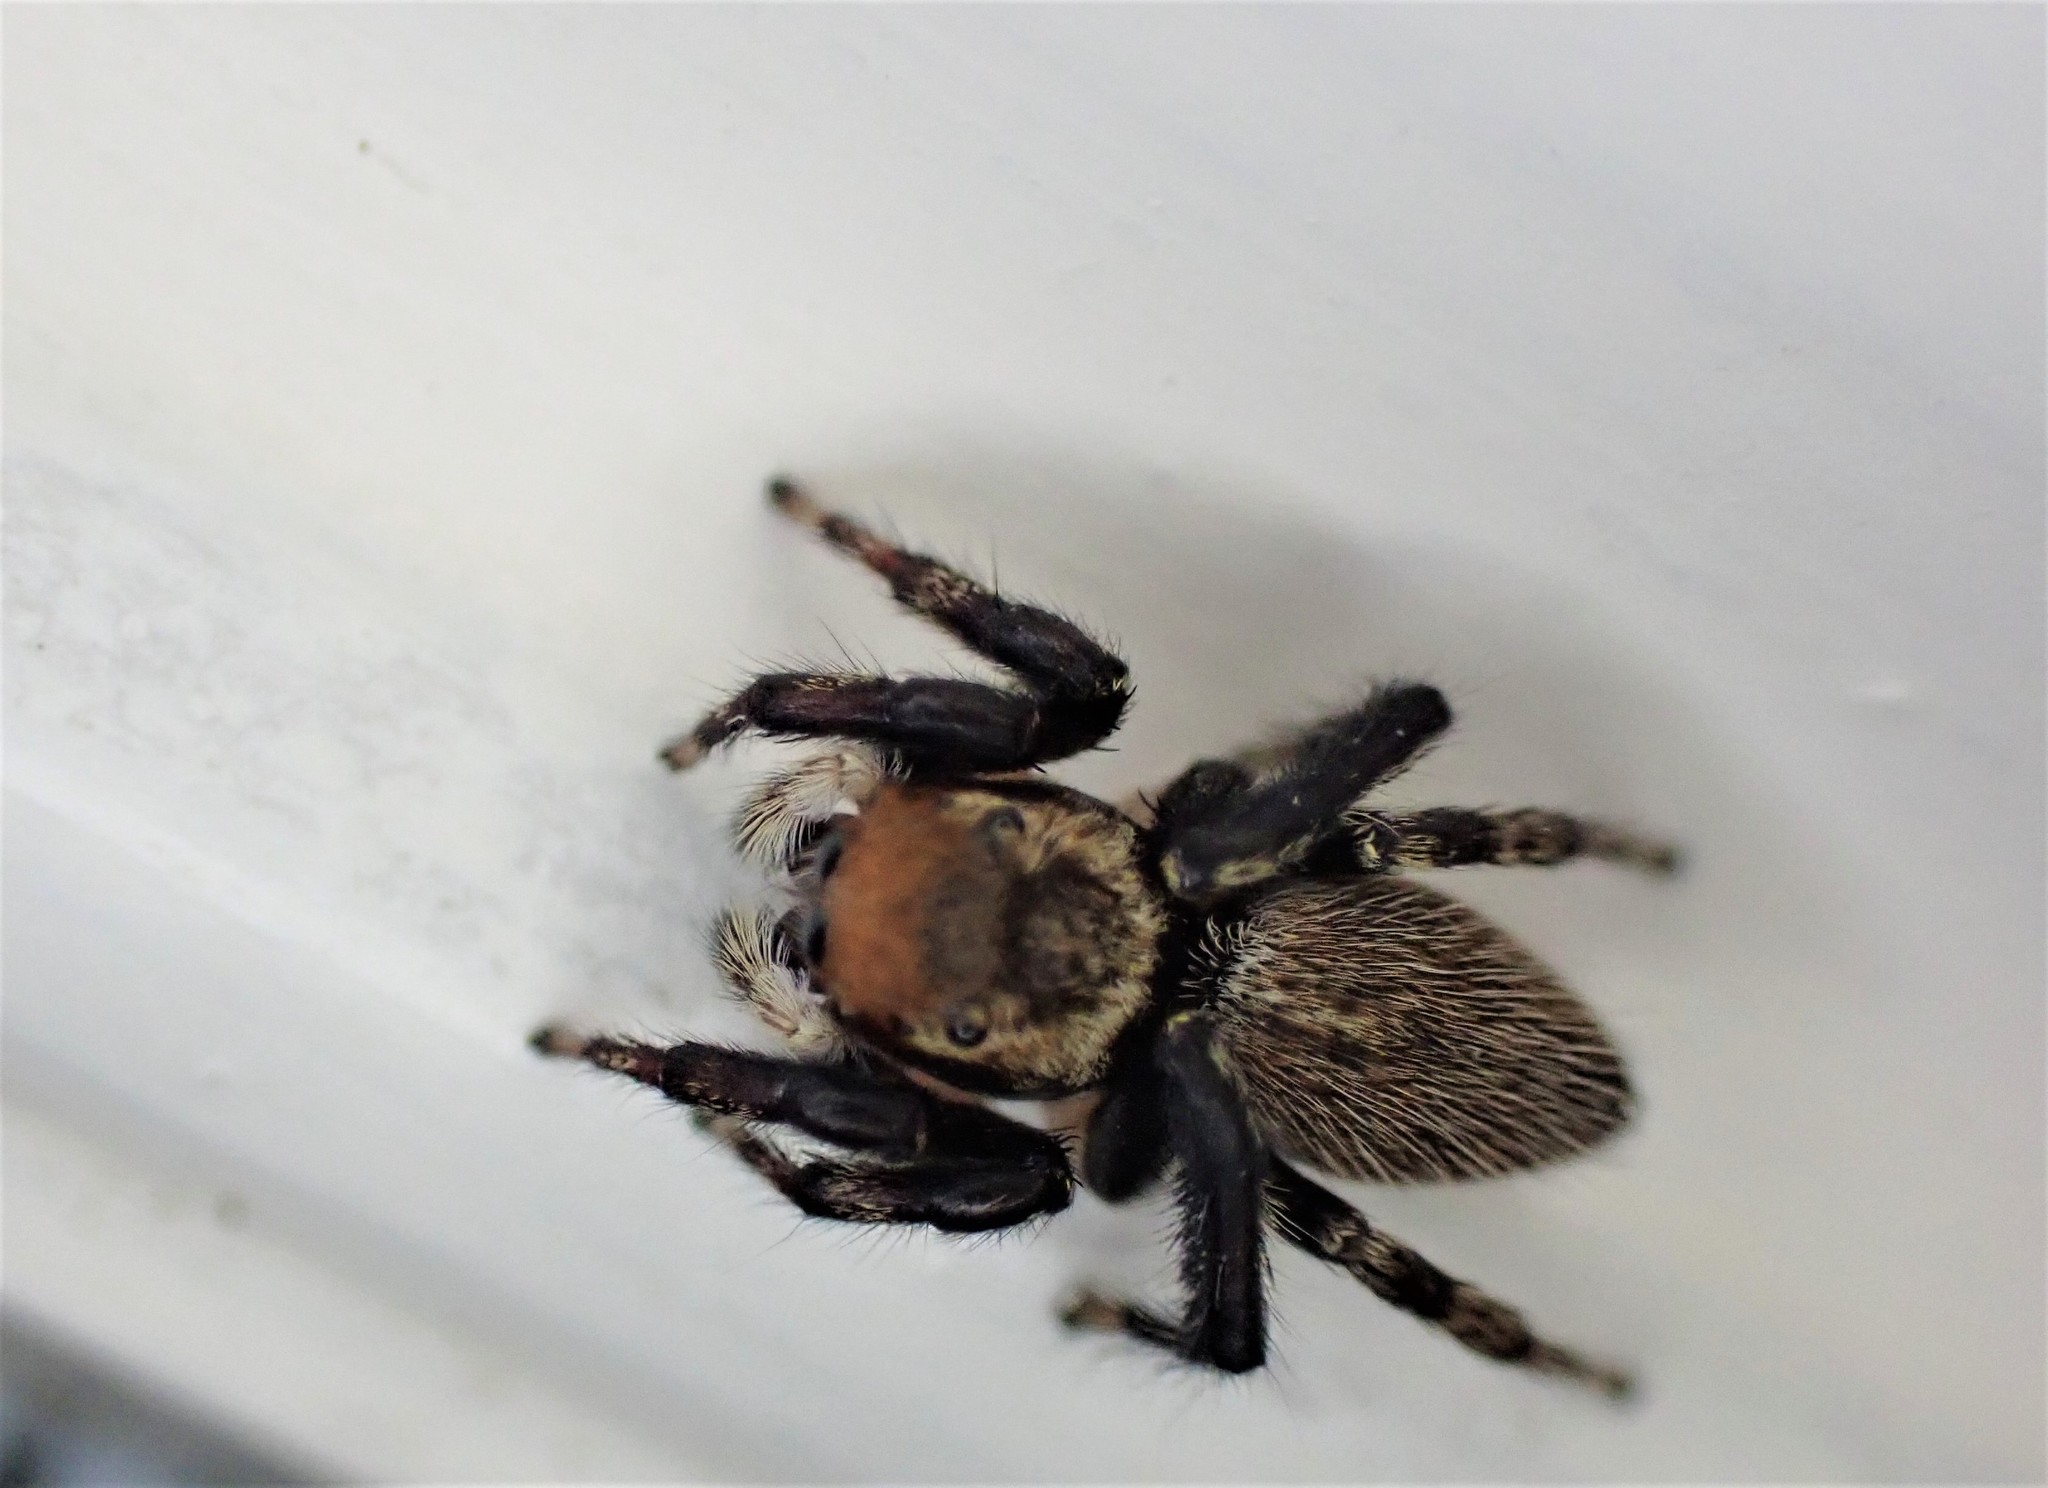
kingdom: Animalia
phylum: Arthropoda
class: Arachnida
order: Araneae
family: Salticidae
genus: Maratus
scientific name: Maratus griseus
